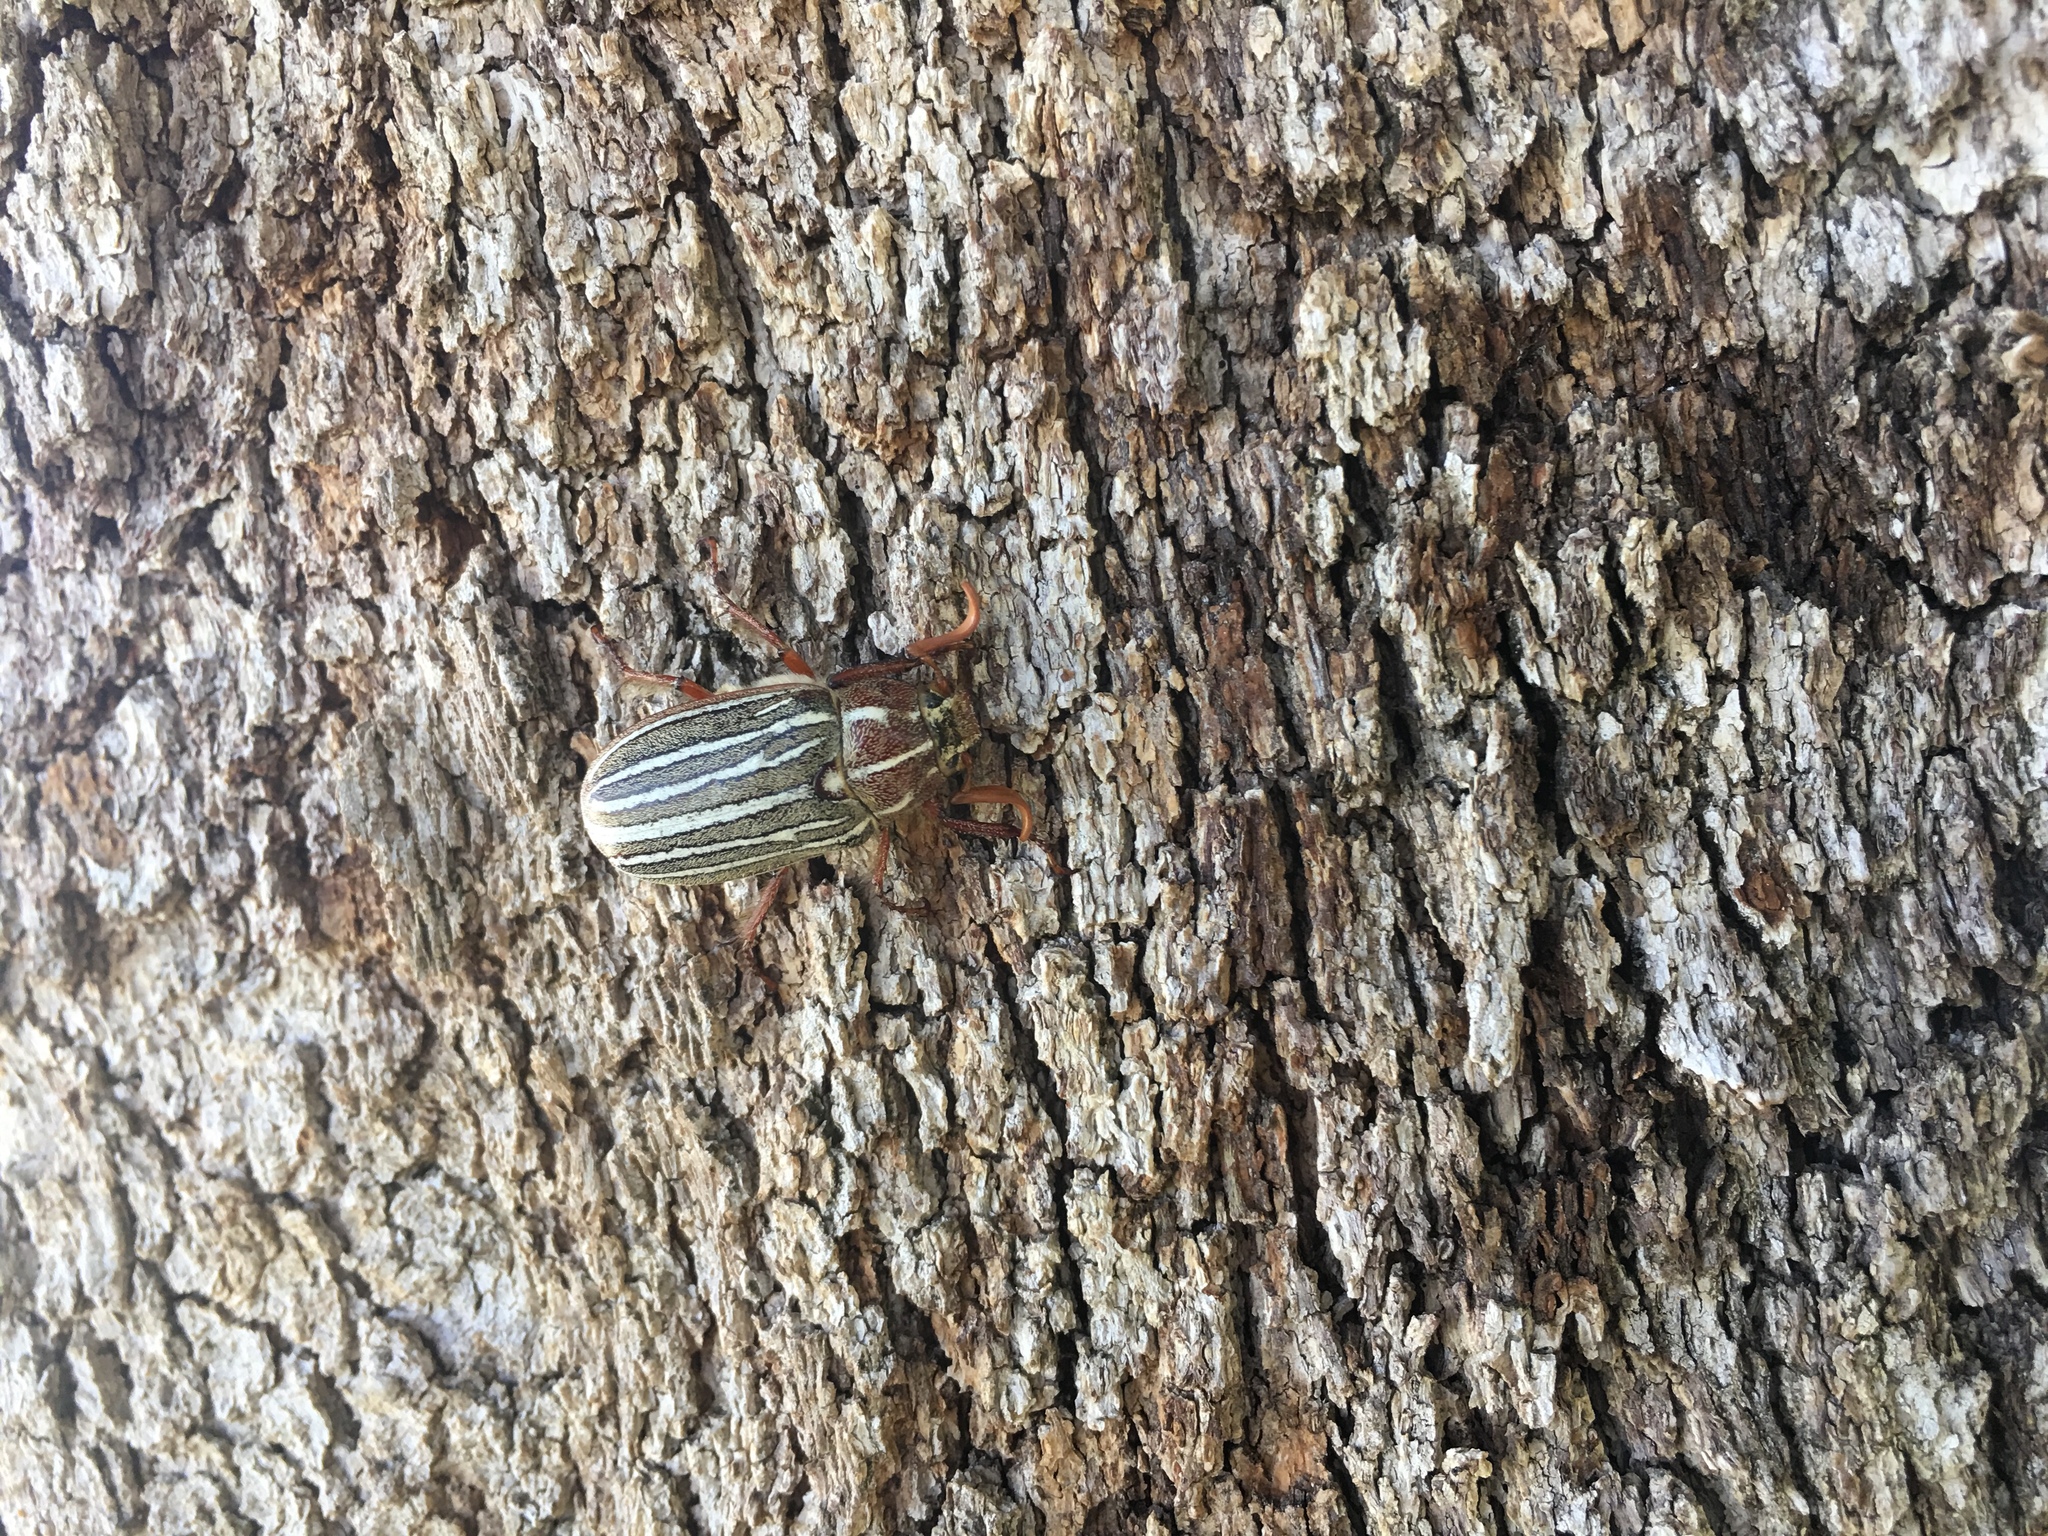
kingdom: Animalia
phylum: Arthropoda
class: Insecta
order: Coleoptera
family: Scarabaeidae
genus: Polyphylla
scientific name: Polyphylla decemlineata
